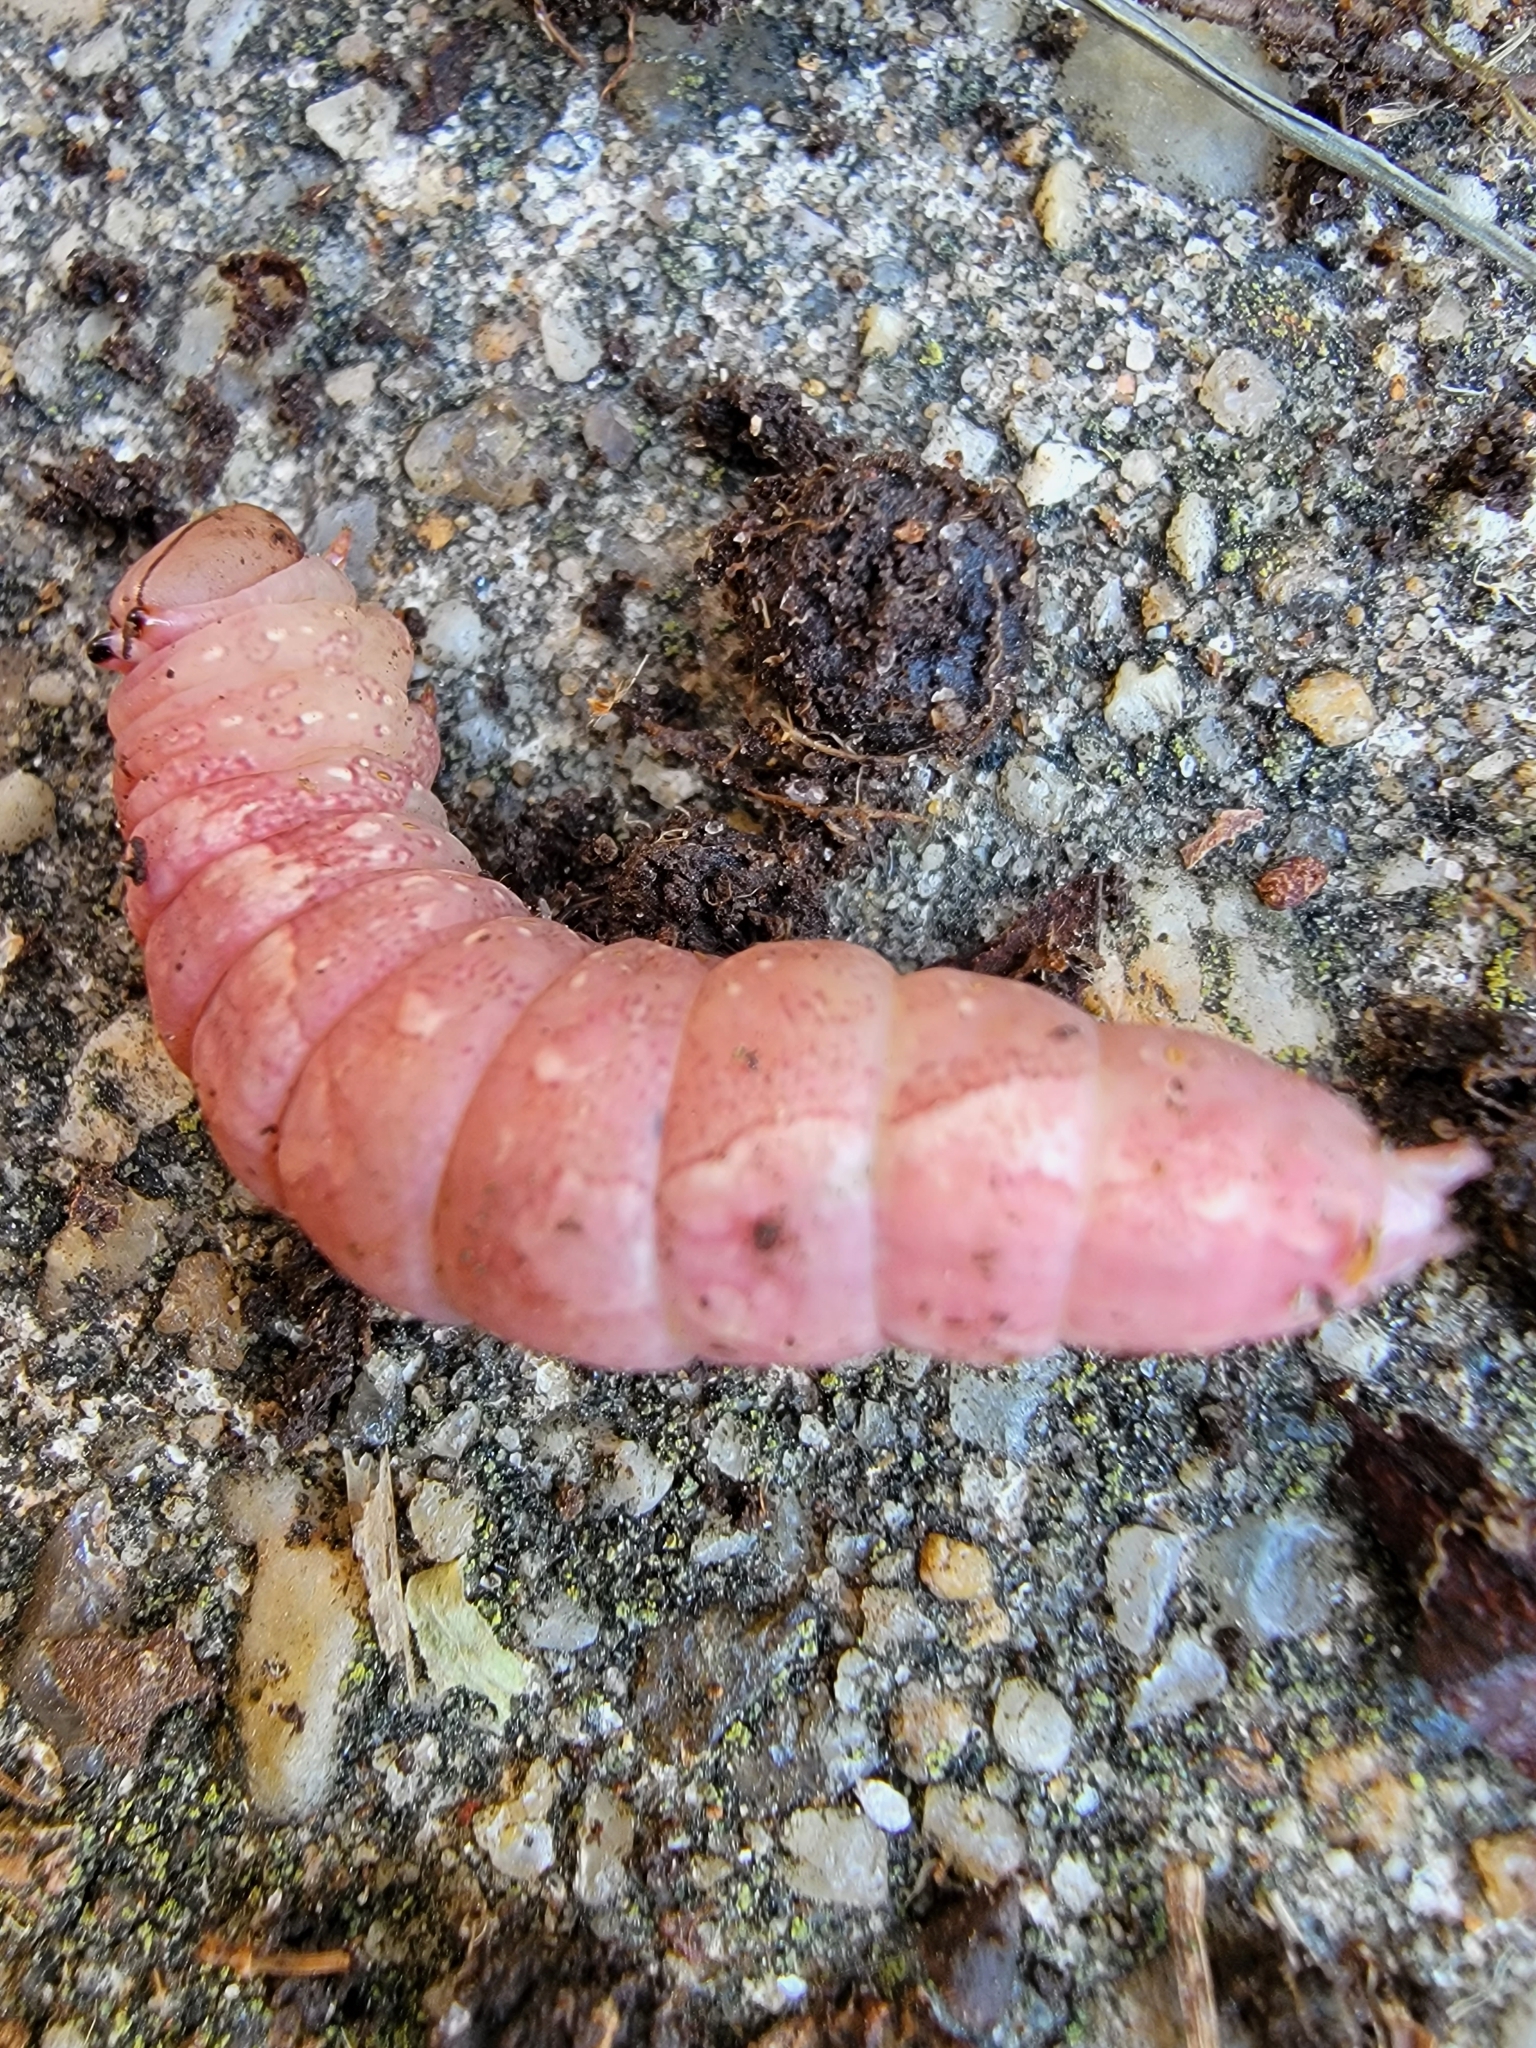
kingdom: Animalia
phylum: Arthropoda
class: Insecta
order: Lepidoptera
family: Notodontidae
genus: Heterocampa
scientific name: Heterocampa
